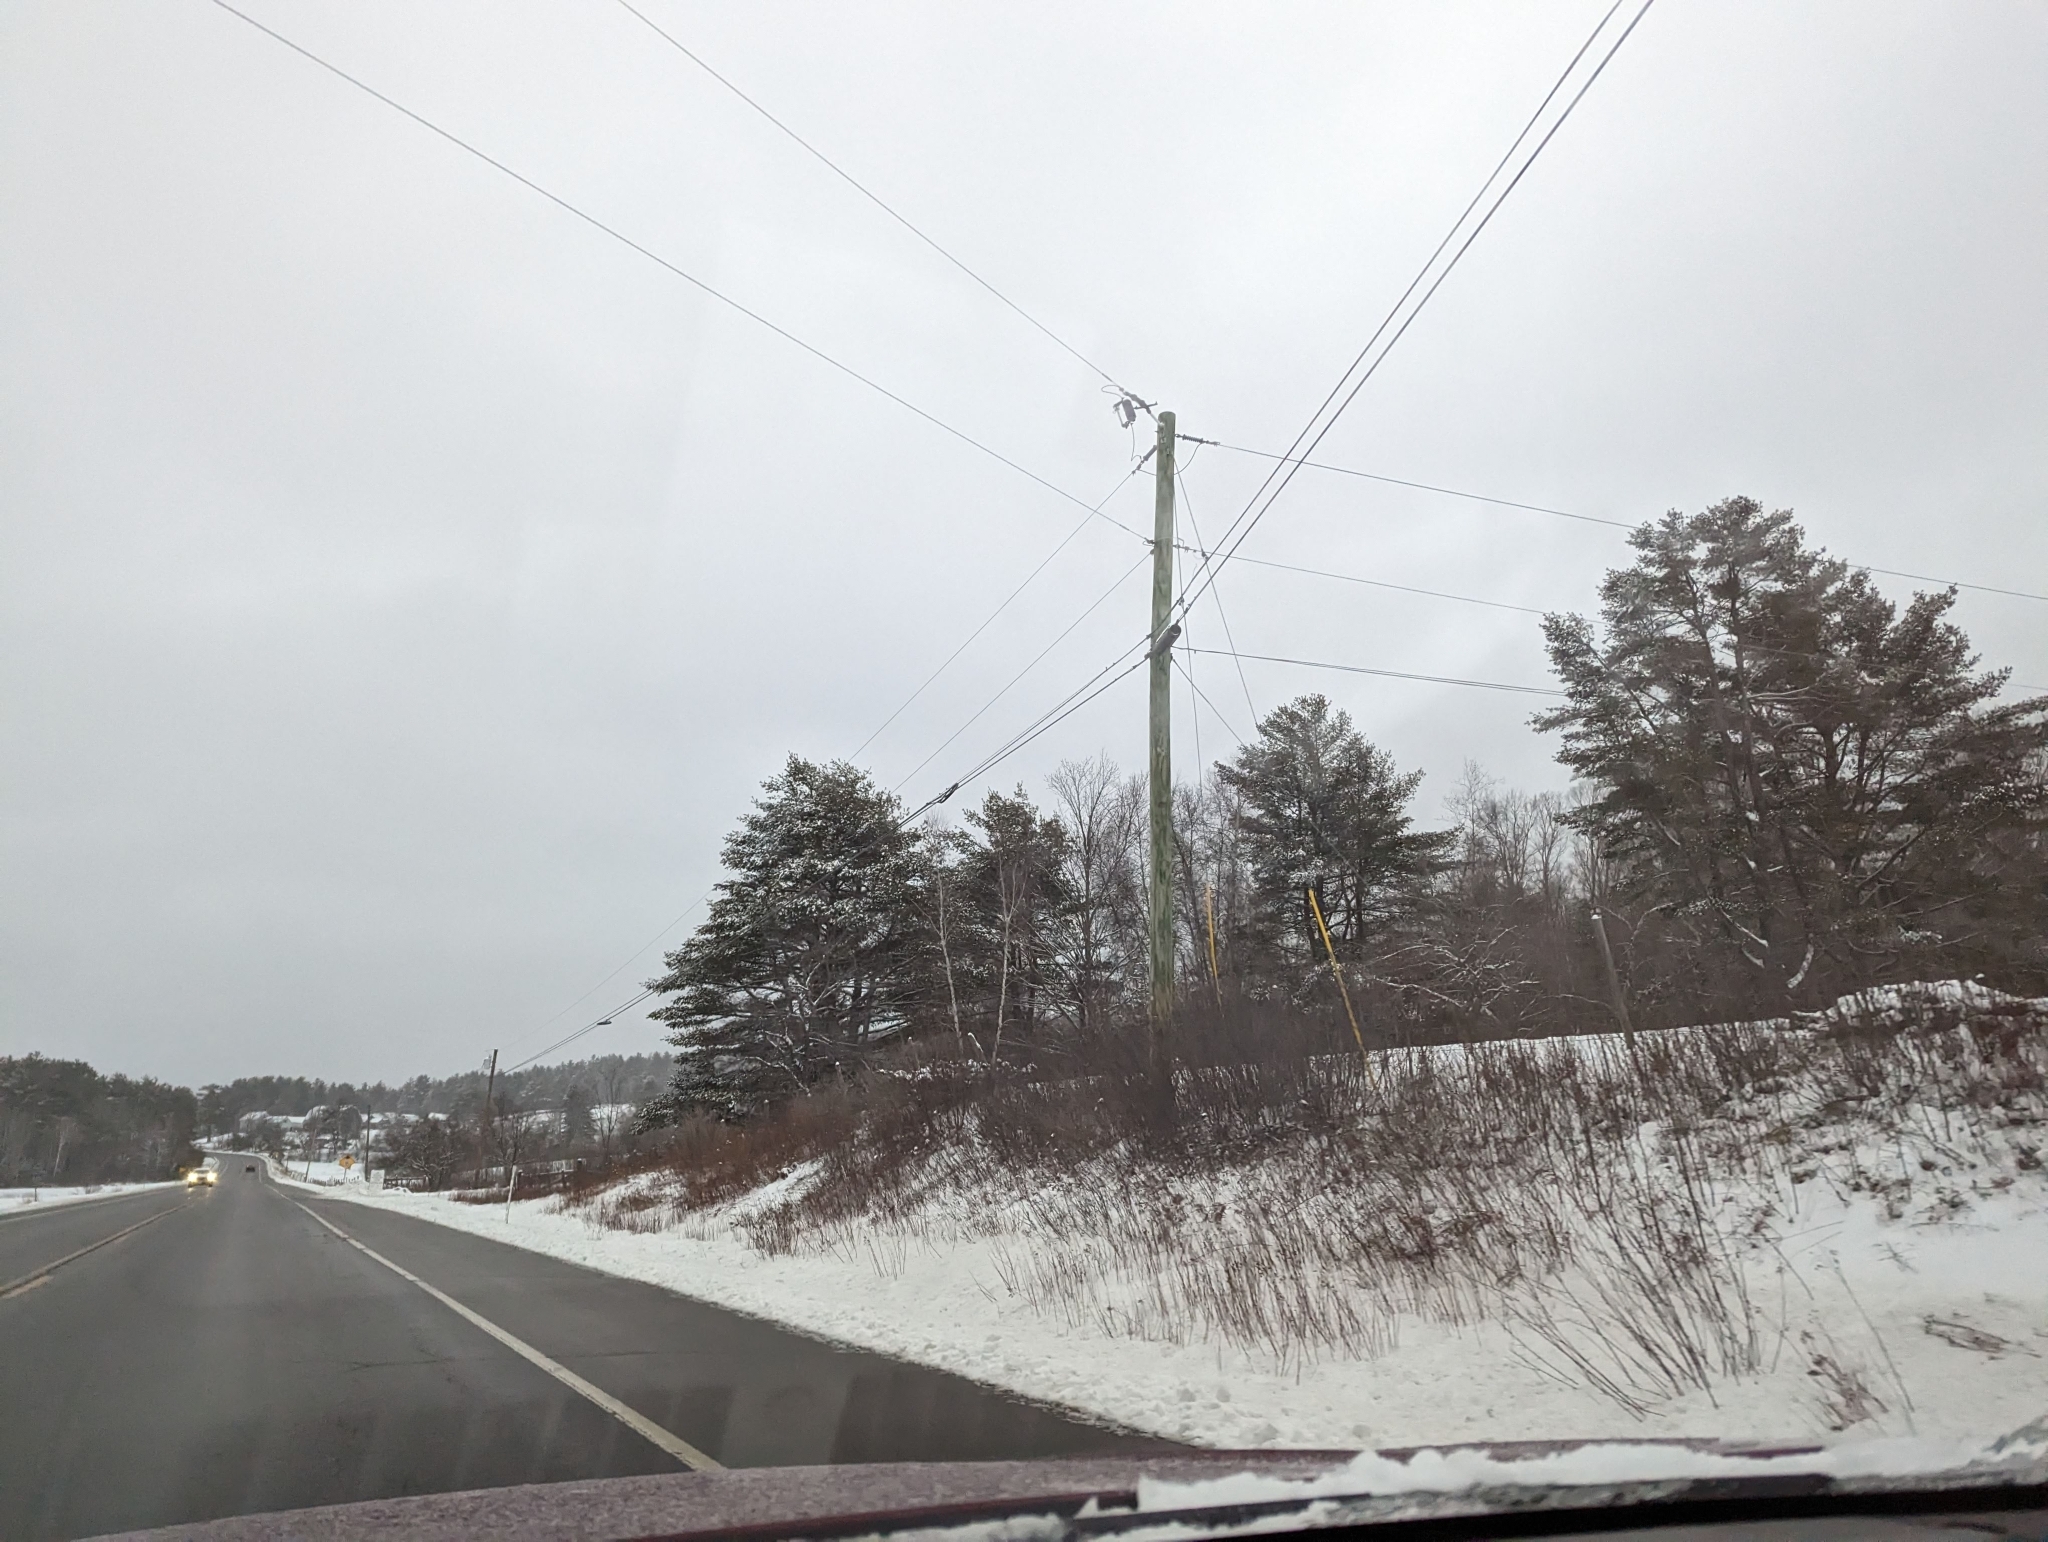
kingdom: Plantae
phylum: Tracheophyta
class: Pinopsida
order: Pinales
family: Pinaceae
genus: Pinus
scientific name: Pinus strobus
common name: Weymouth pine
